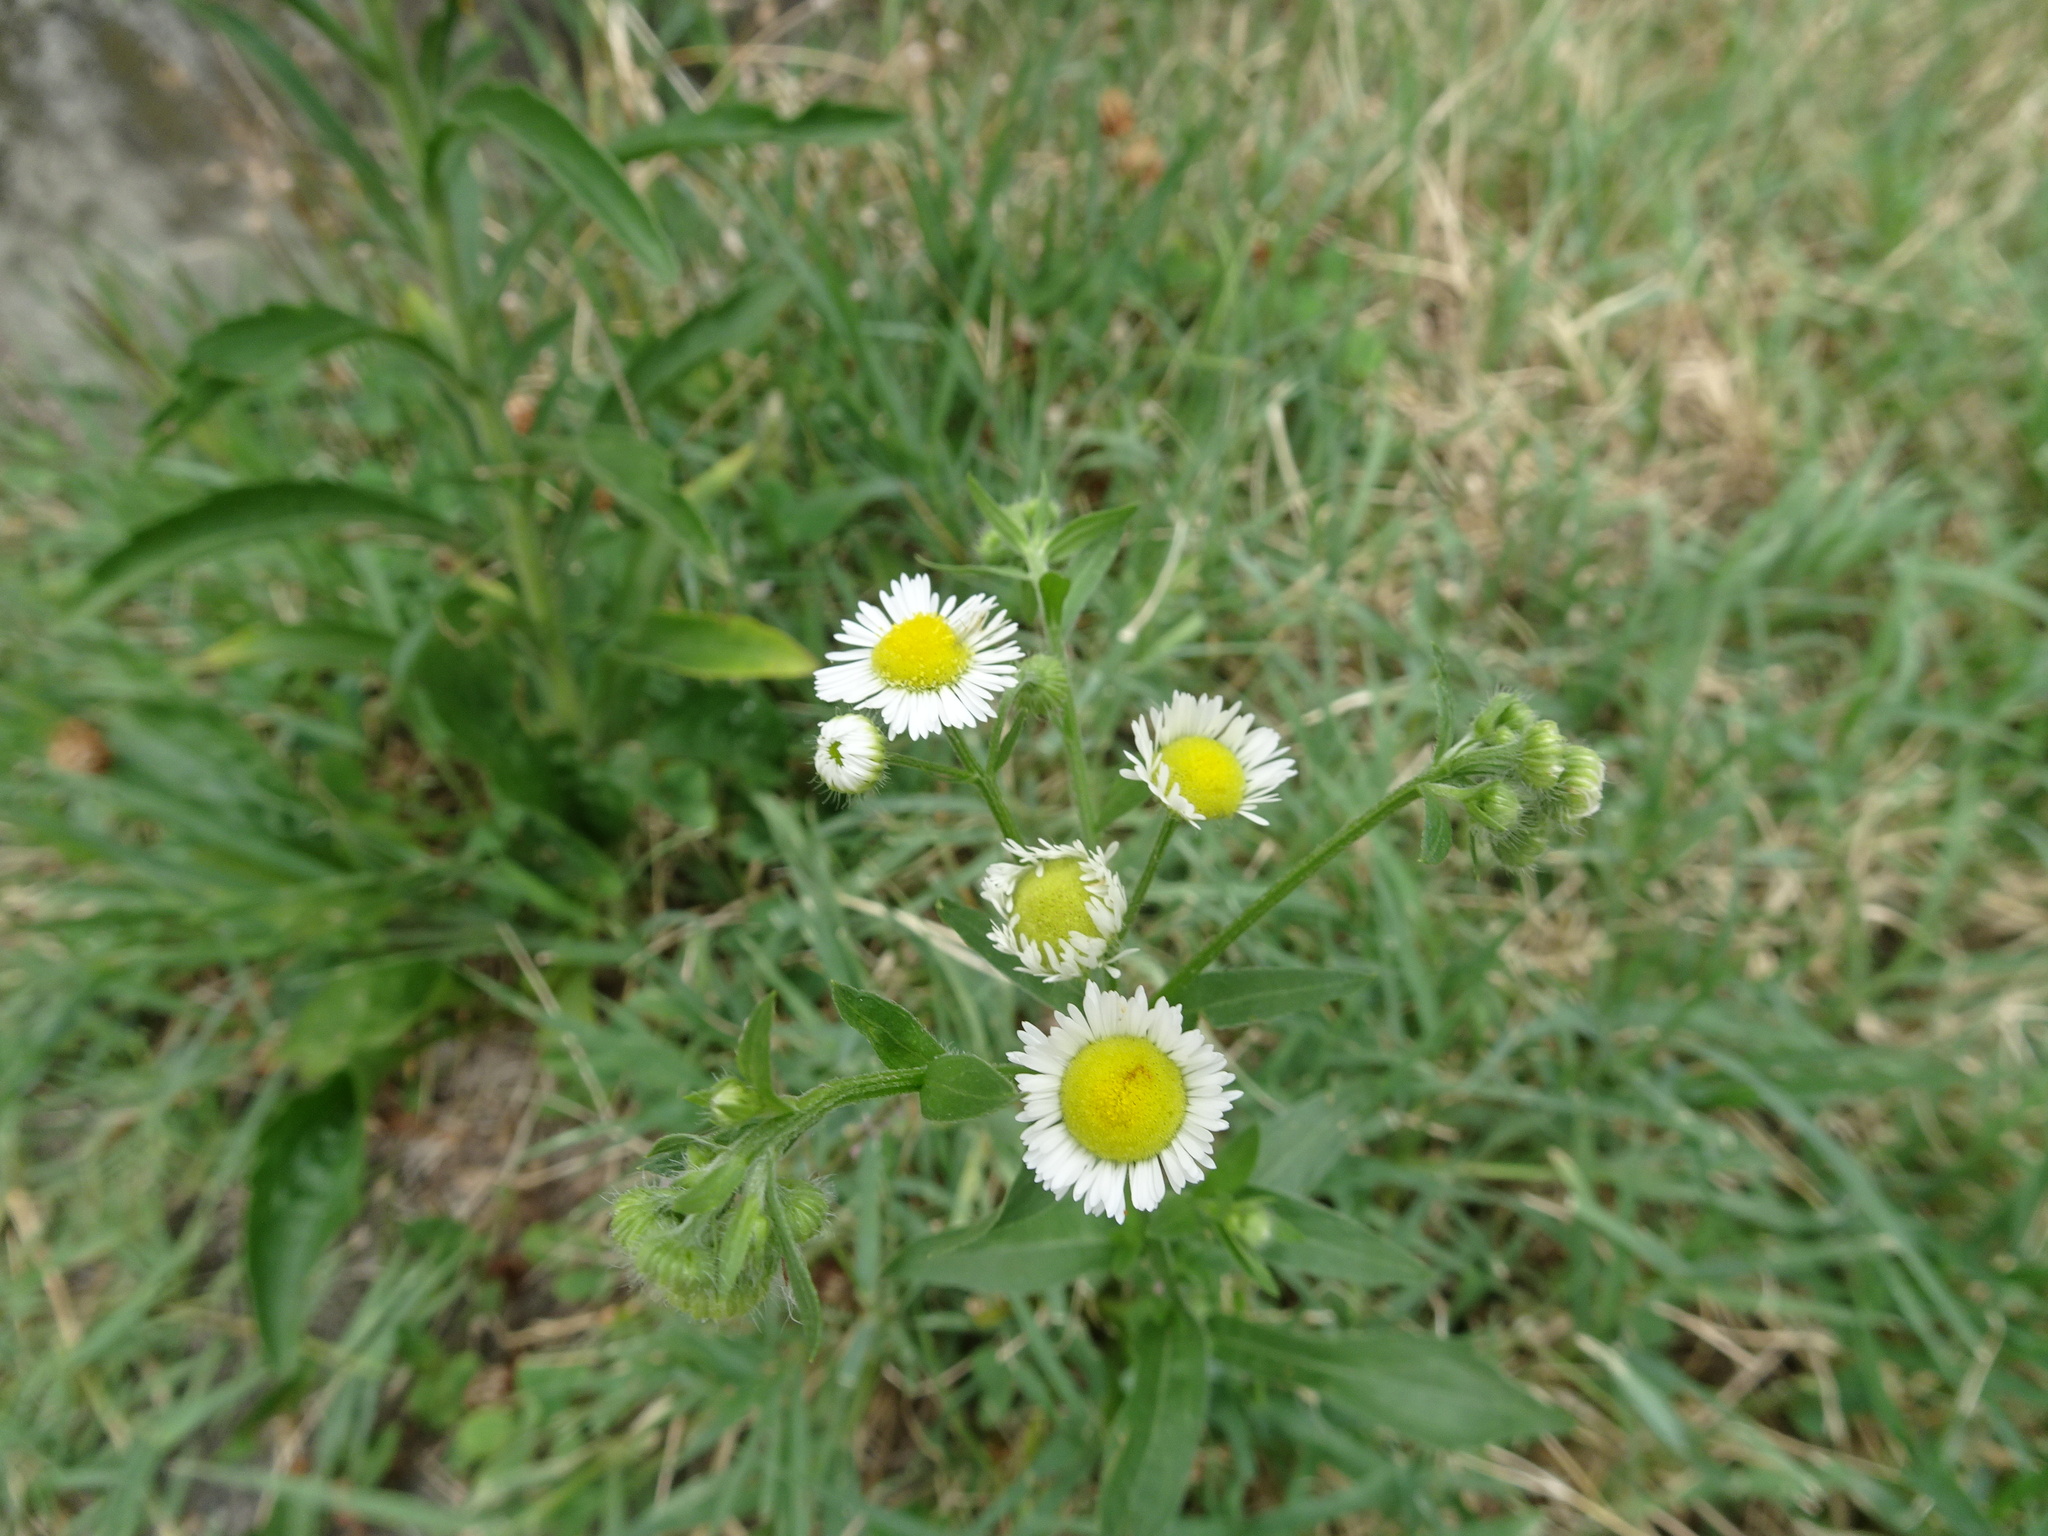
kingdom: Plantae
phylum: Tracheophyta
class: Magnoliopsida
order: Asterales
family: Asteraceae
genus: Erigeron
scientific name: Erigeron annuus
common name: Tall fleabane
